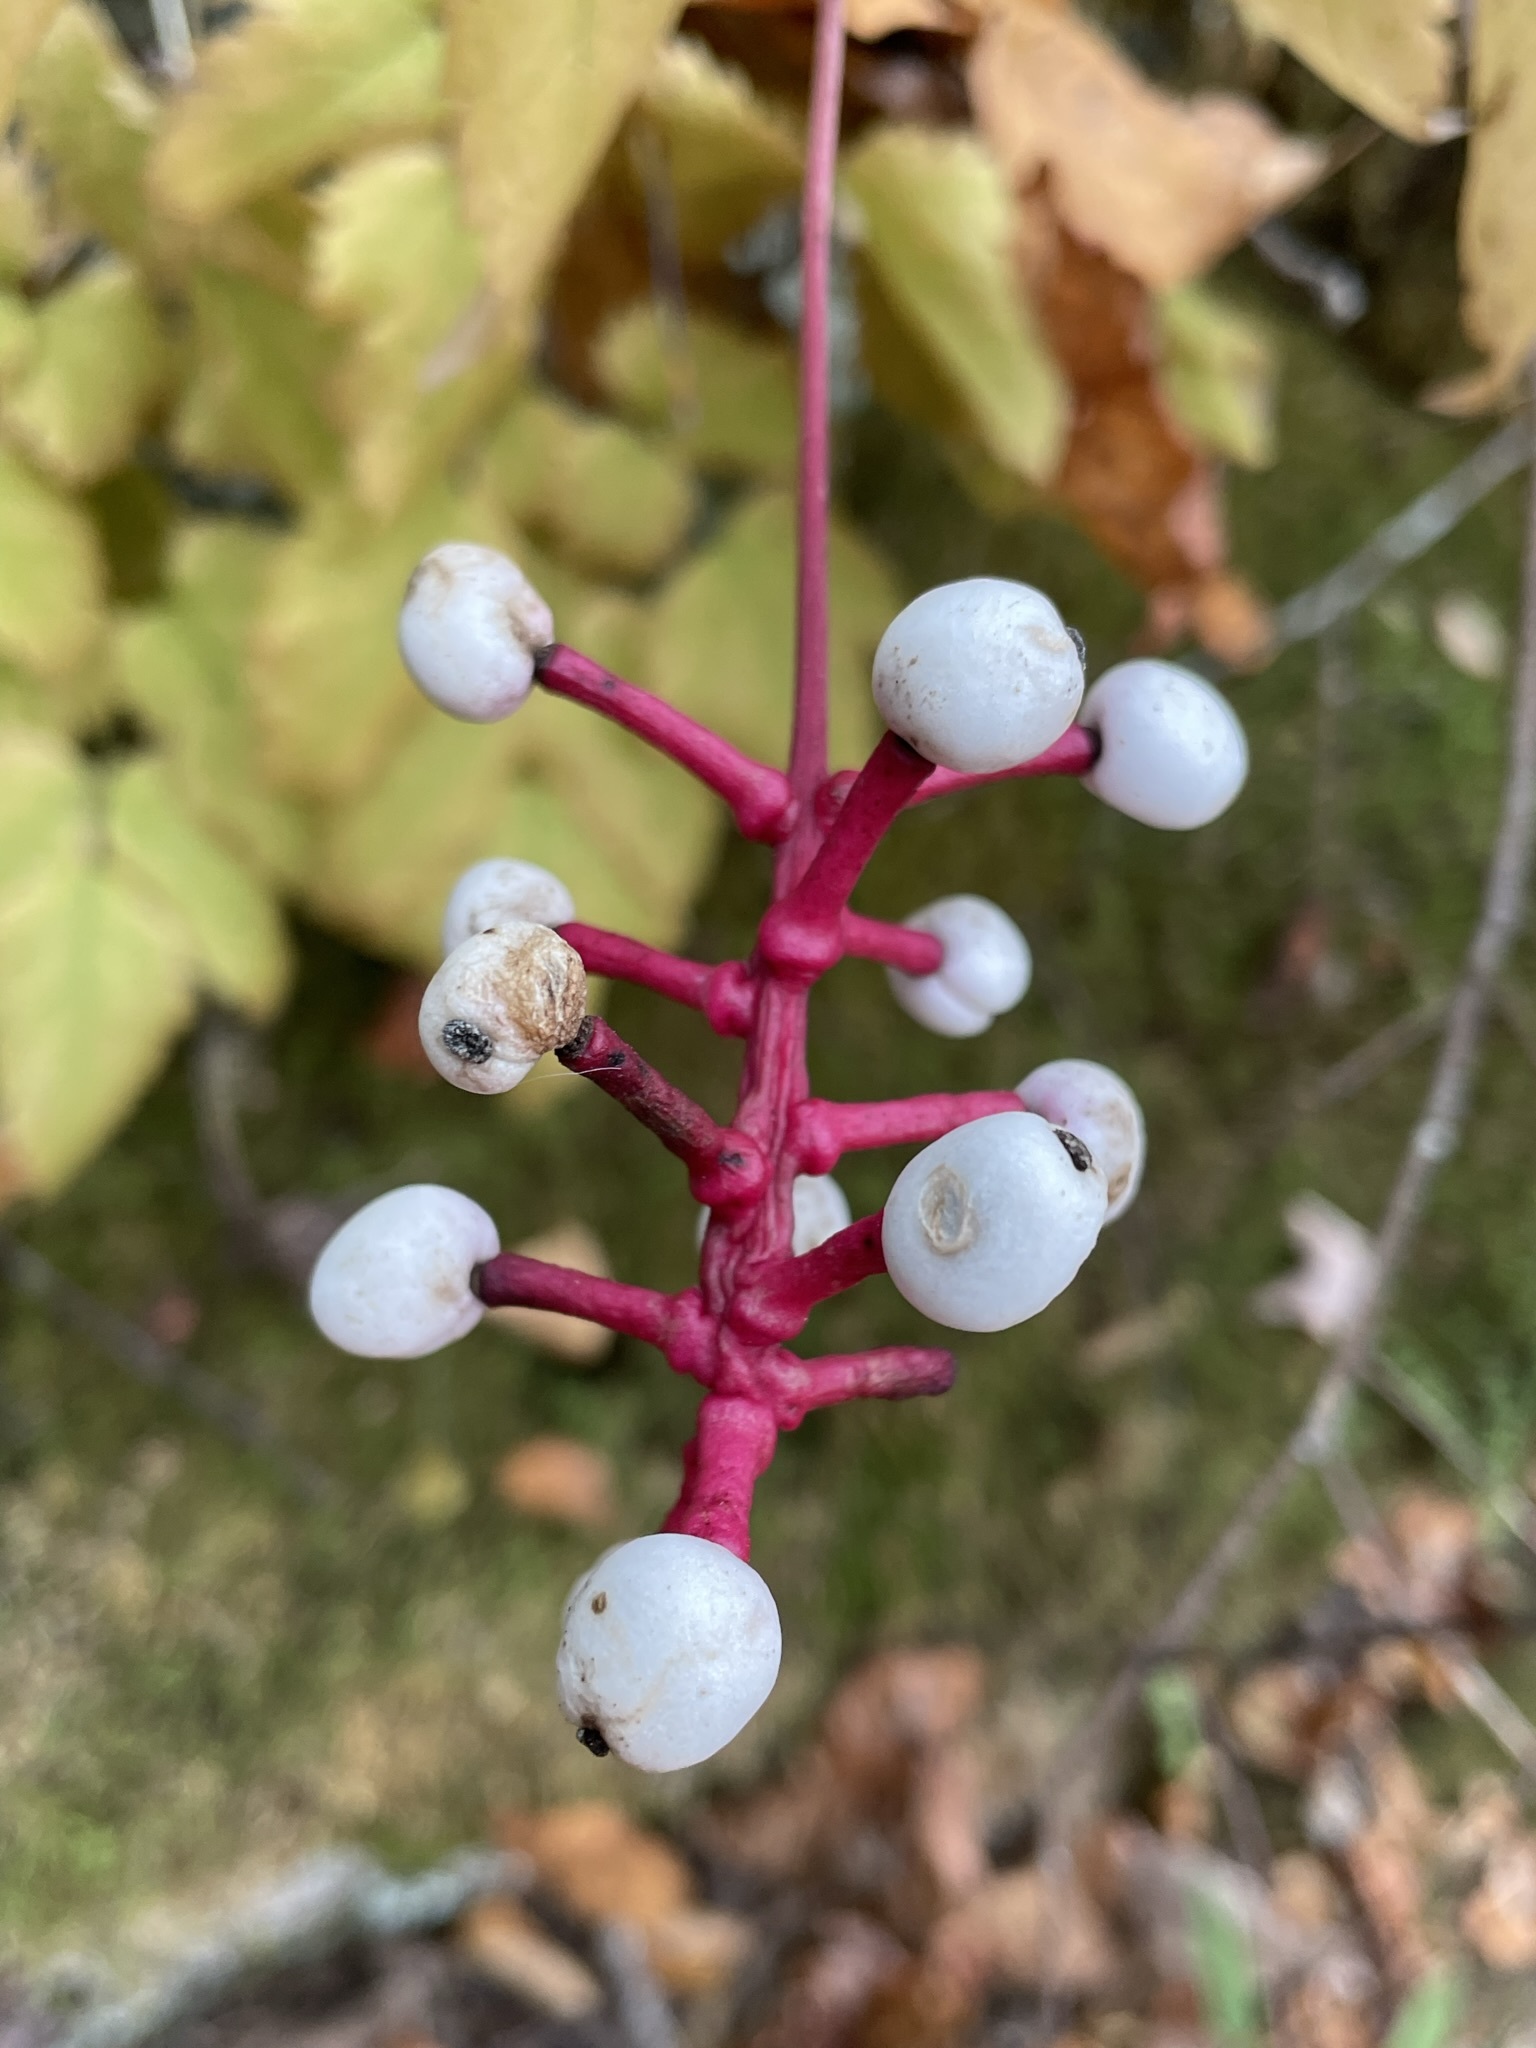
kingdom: Plantae
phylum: Tracheophyta
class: Magnoliopsida
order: Ranunculales
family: Ranunculaceae
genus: Actaea
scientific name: Actaea pachypoda
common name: Doll's-eyes
